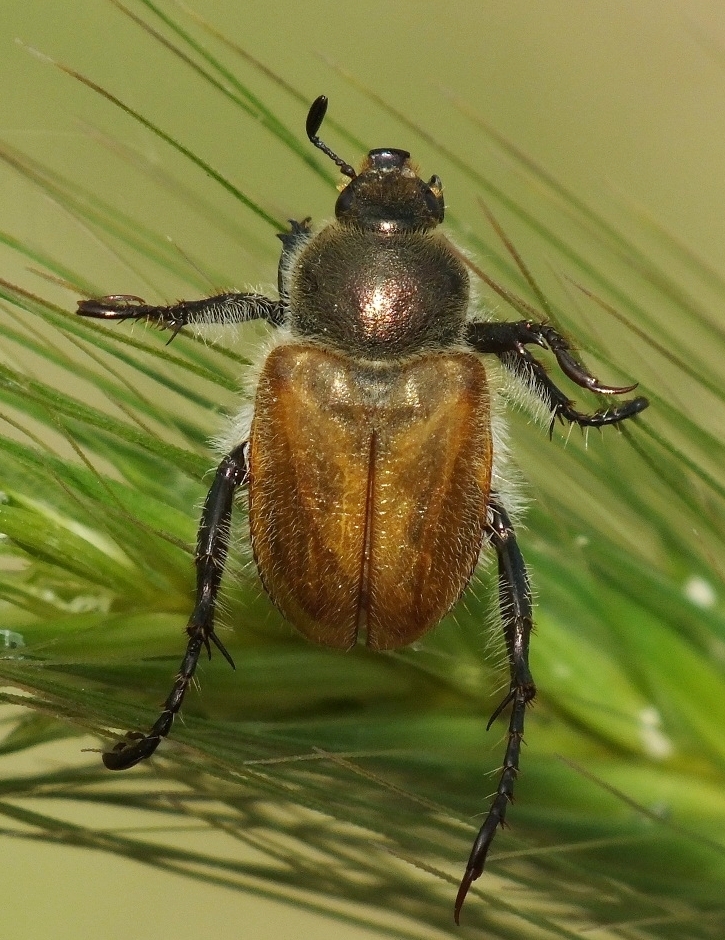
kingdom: Animalia
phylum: Arthropoda
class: Insecta
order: Coleoptera
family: Scarabaeidae
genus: Chaetopteroplia
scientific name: Chaetopteroplia segetum
